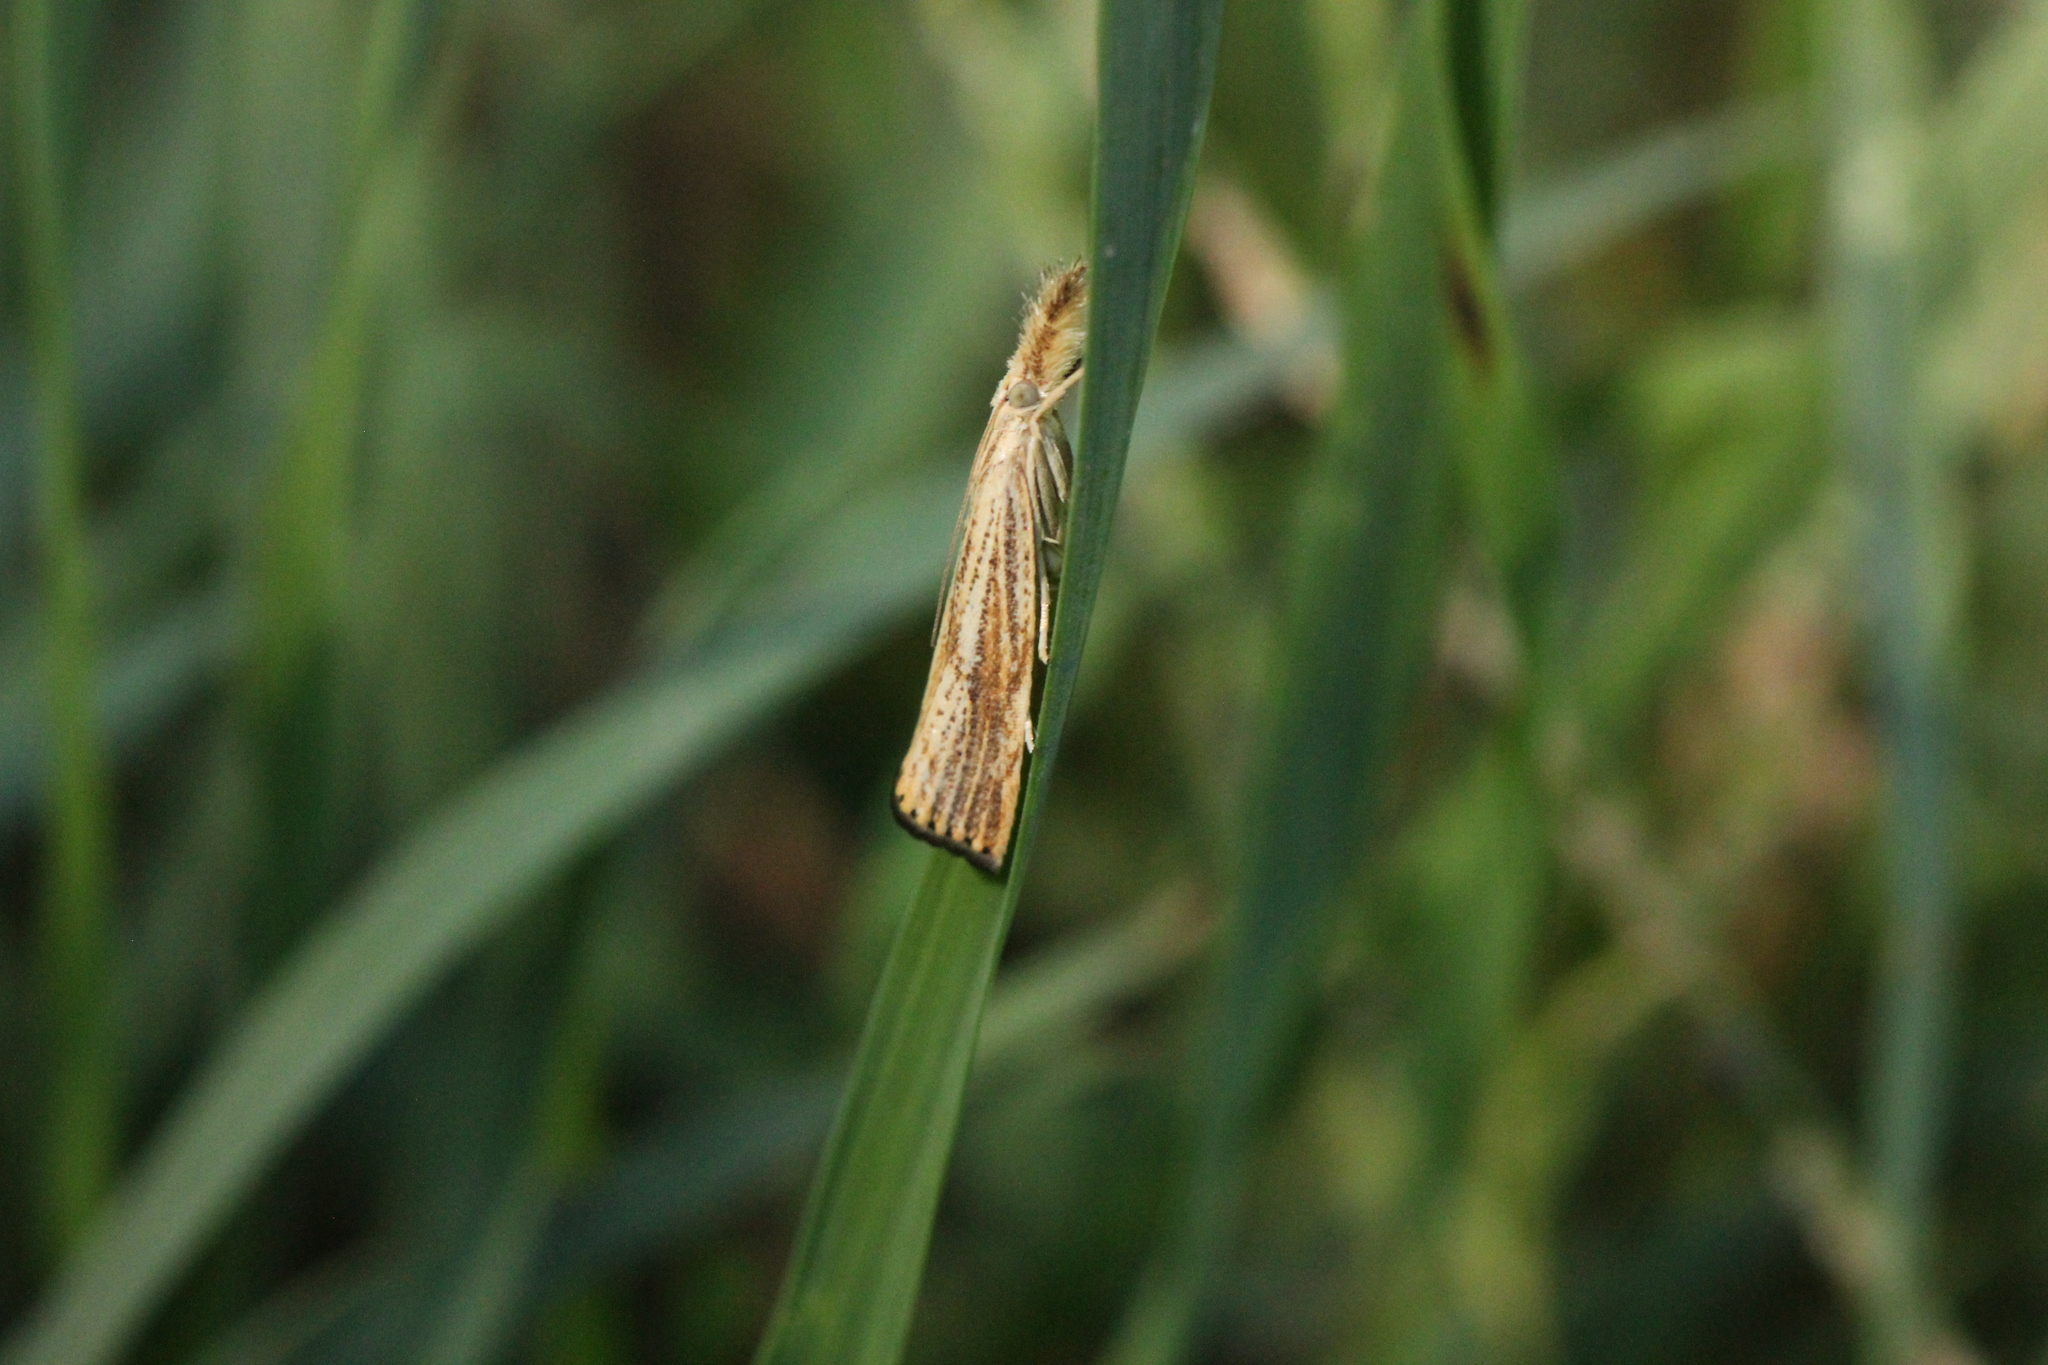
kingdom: Animalia
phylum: Arthropoda
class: Insecta
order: Lepidoptera
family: Crambidae
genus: Agriphila
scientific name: Agriphila ruricolellus
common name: Lesser vagabond sod webworm
